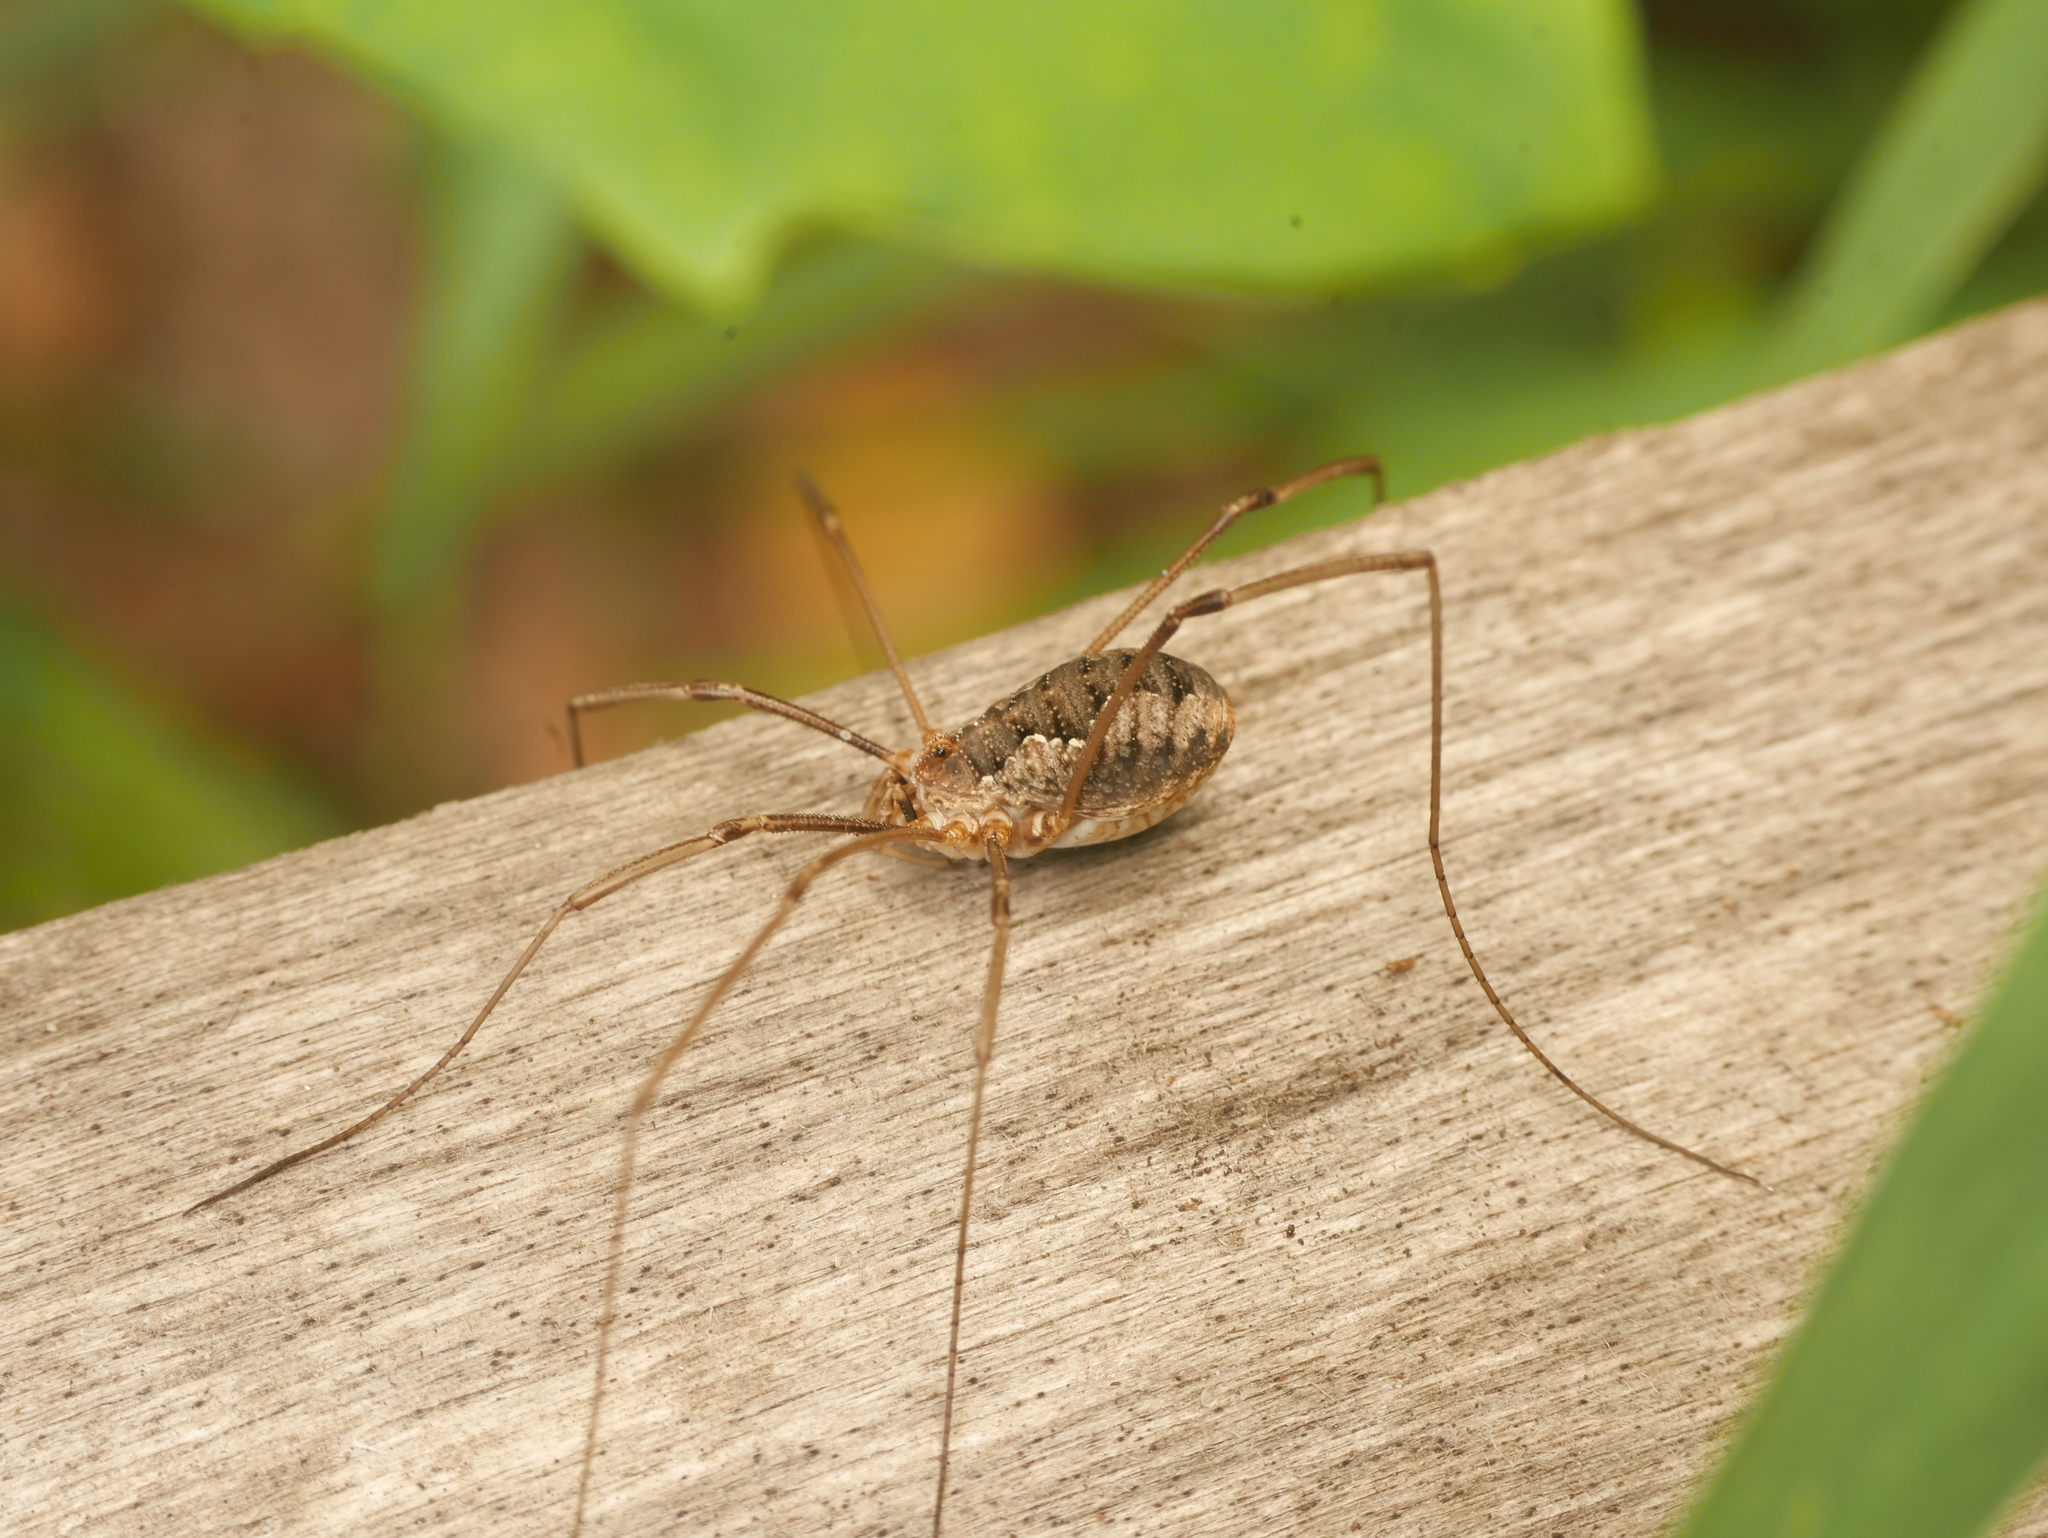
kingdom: Animalia
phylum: Arthropoda
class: Arachnida
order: Opiliones
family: Phalangiidae
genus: Phalangium
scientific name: Phalangium opilio
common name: Daddy longleg
